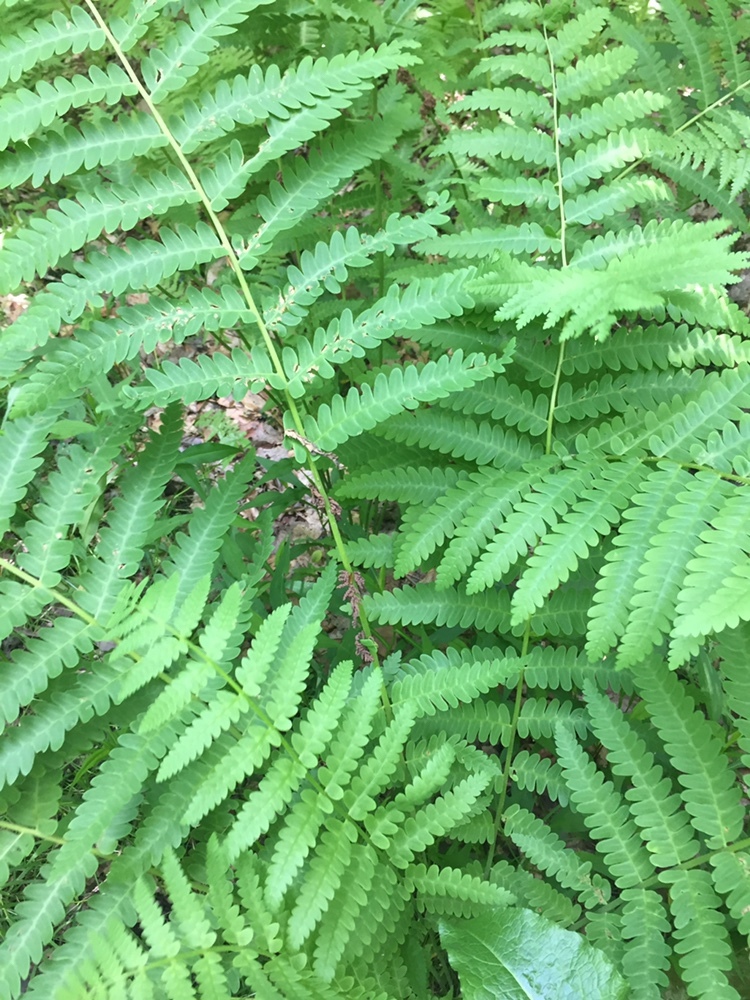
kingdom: Plantae
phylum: Tracheophyta
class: Polypodiopsida
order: Osmundales
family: Osmundaceae
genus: Claytosmunda
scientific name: Claytosmunda claytoniana
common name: Clayton's fern
